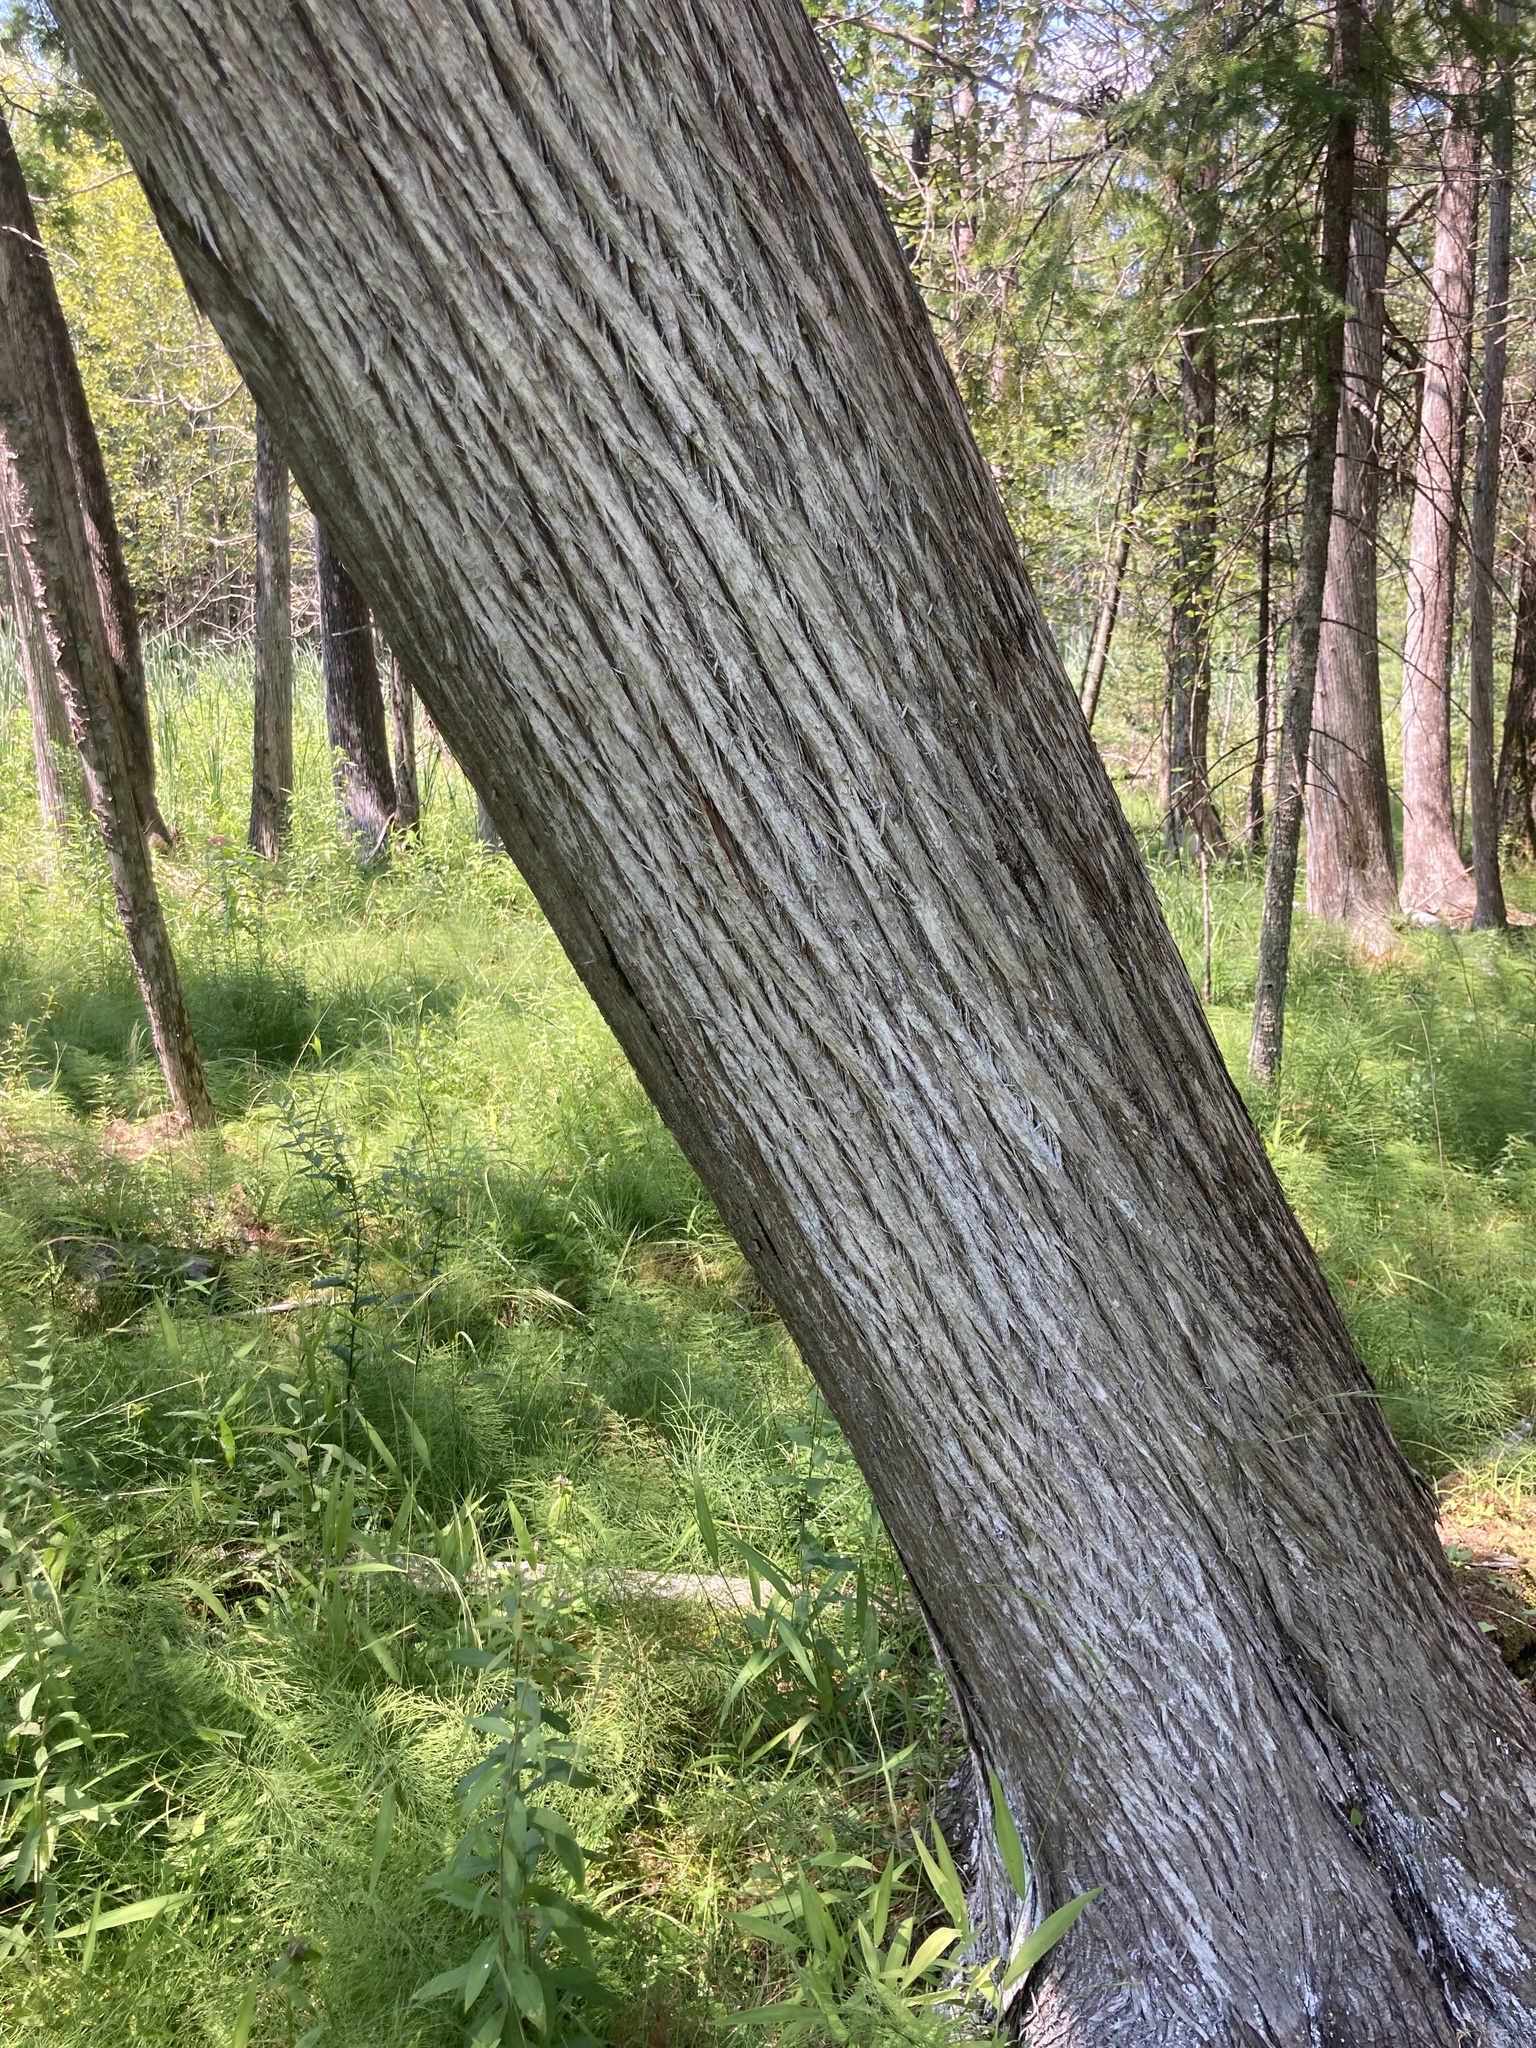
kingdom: Plantae
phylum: Tracheophyta
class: Pinopsida
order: Pinales
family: Cupressaceae
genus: Thuja
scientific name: Thuja occidentalis
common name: Northern white-cedar
